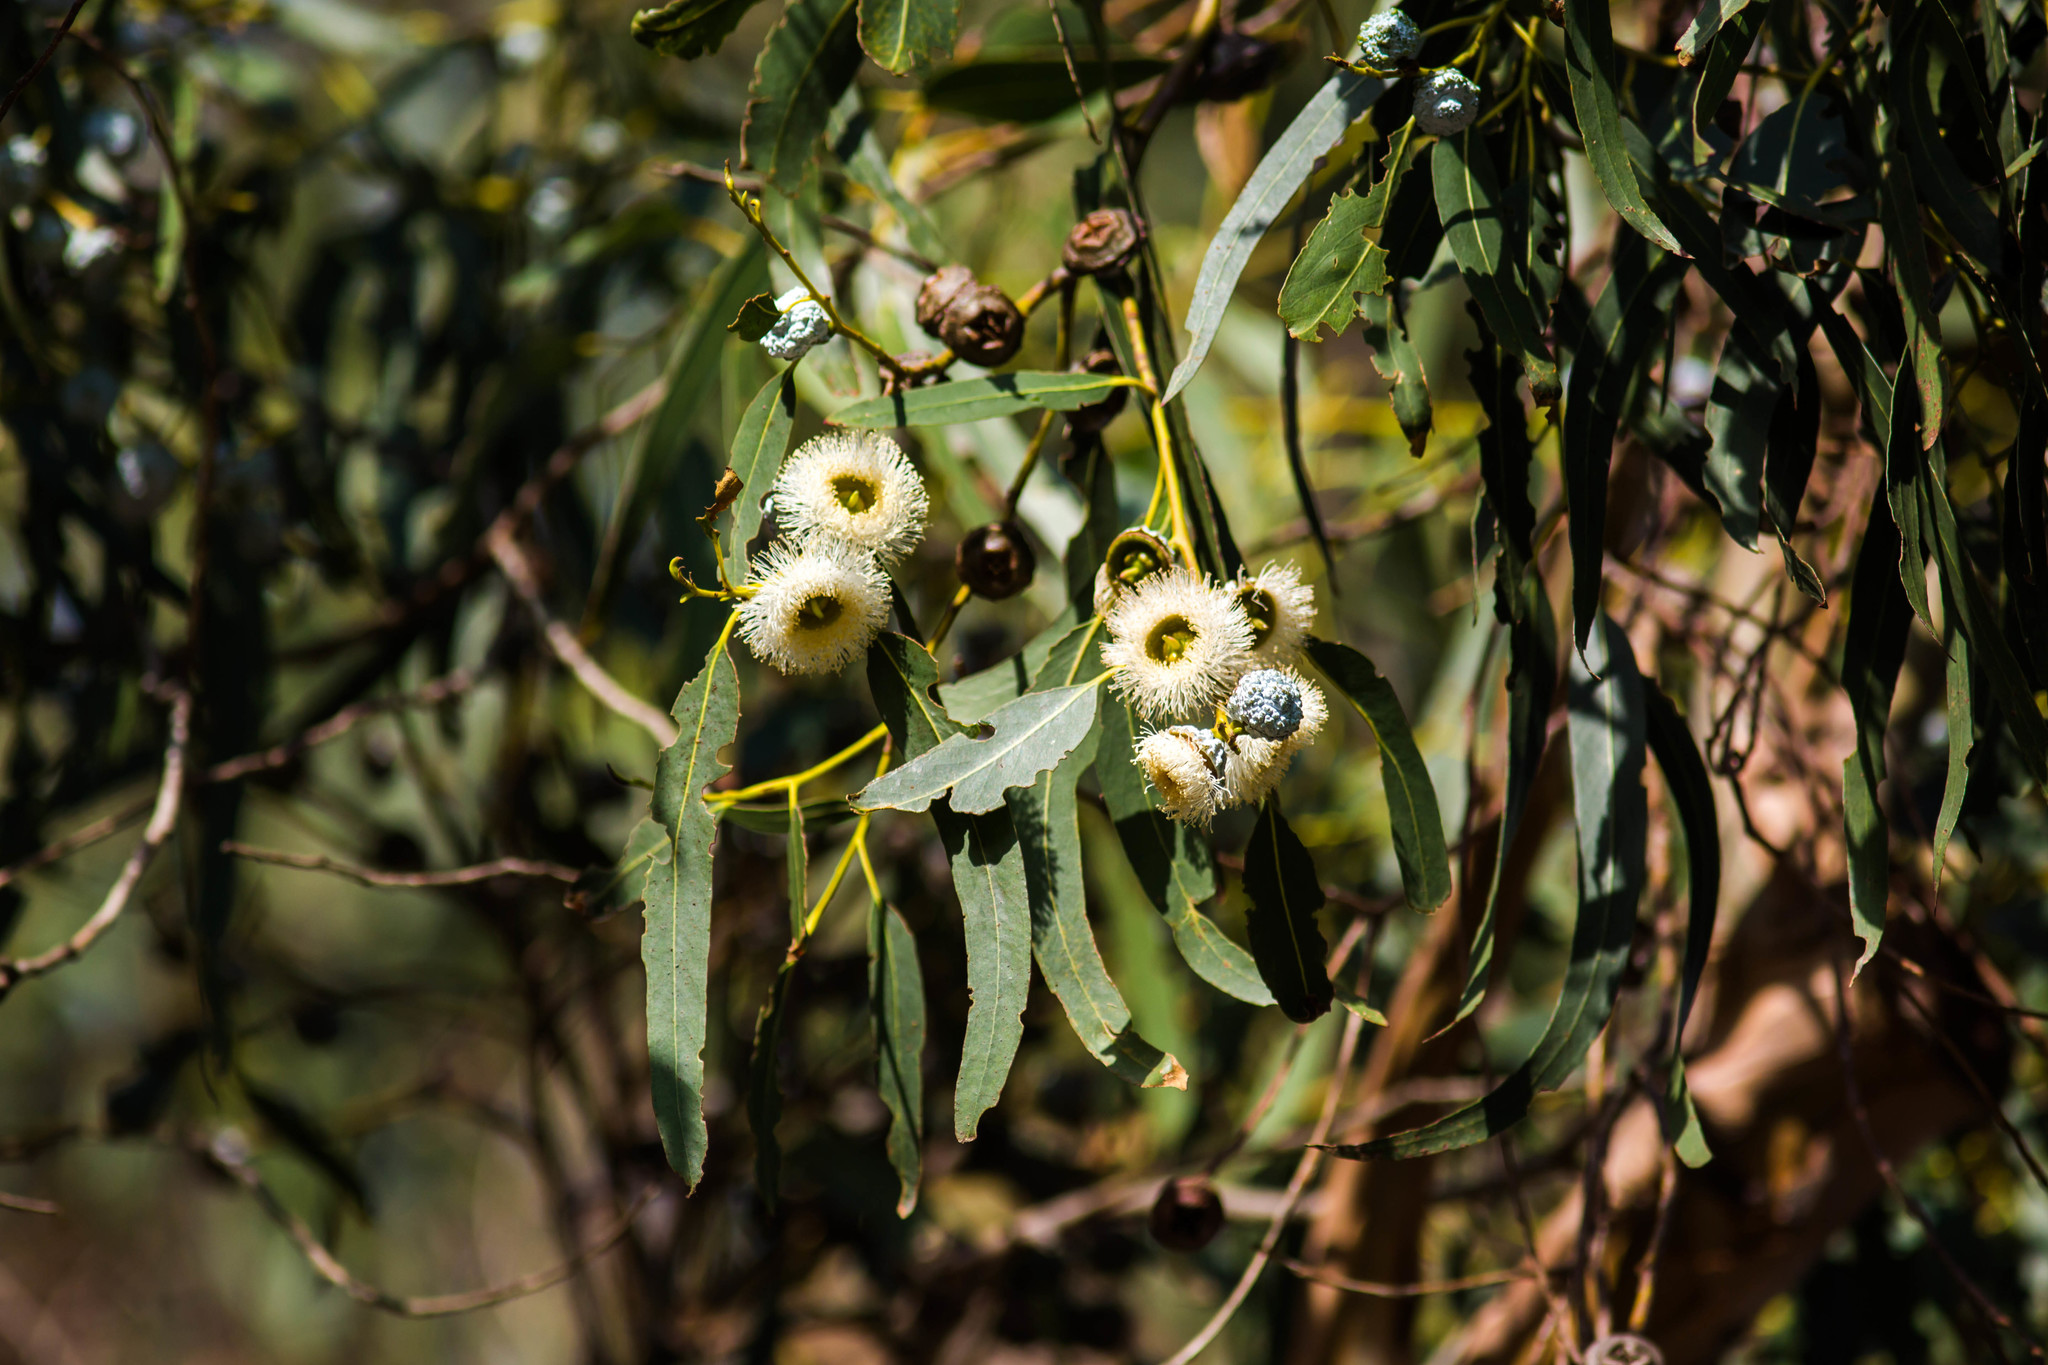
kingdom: Plantae
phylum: Tracheophyta
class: Magnoliopsida
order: Myrtales
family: Myrtaceae
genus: Eucalyptus
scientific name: Eucalyptus globulus
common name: Southern blue-gum
